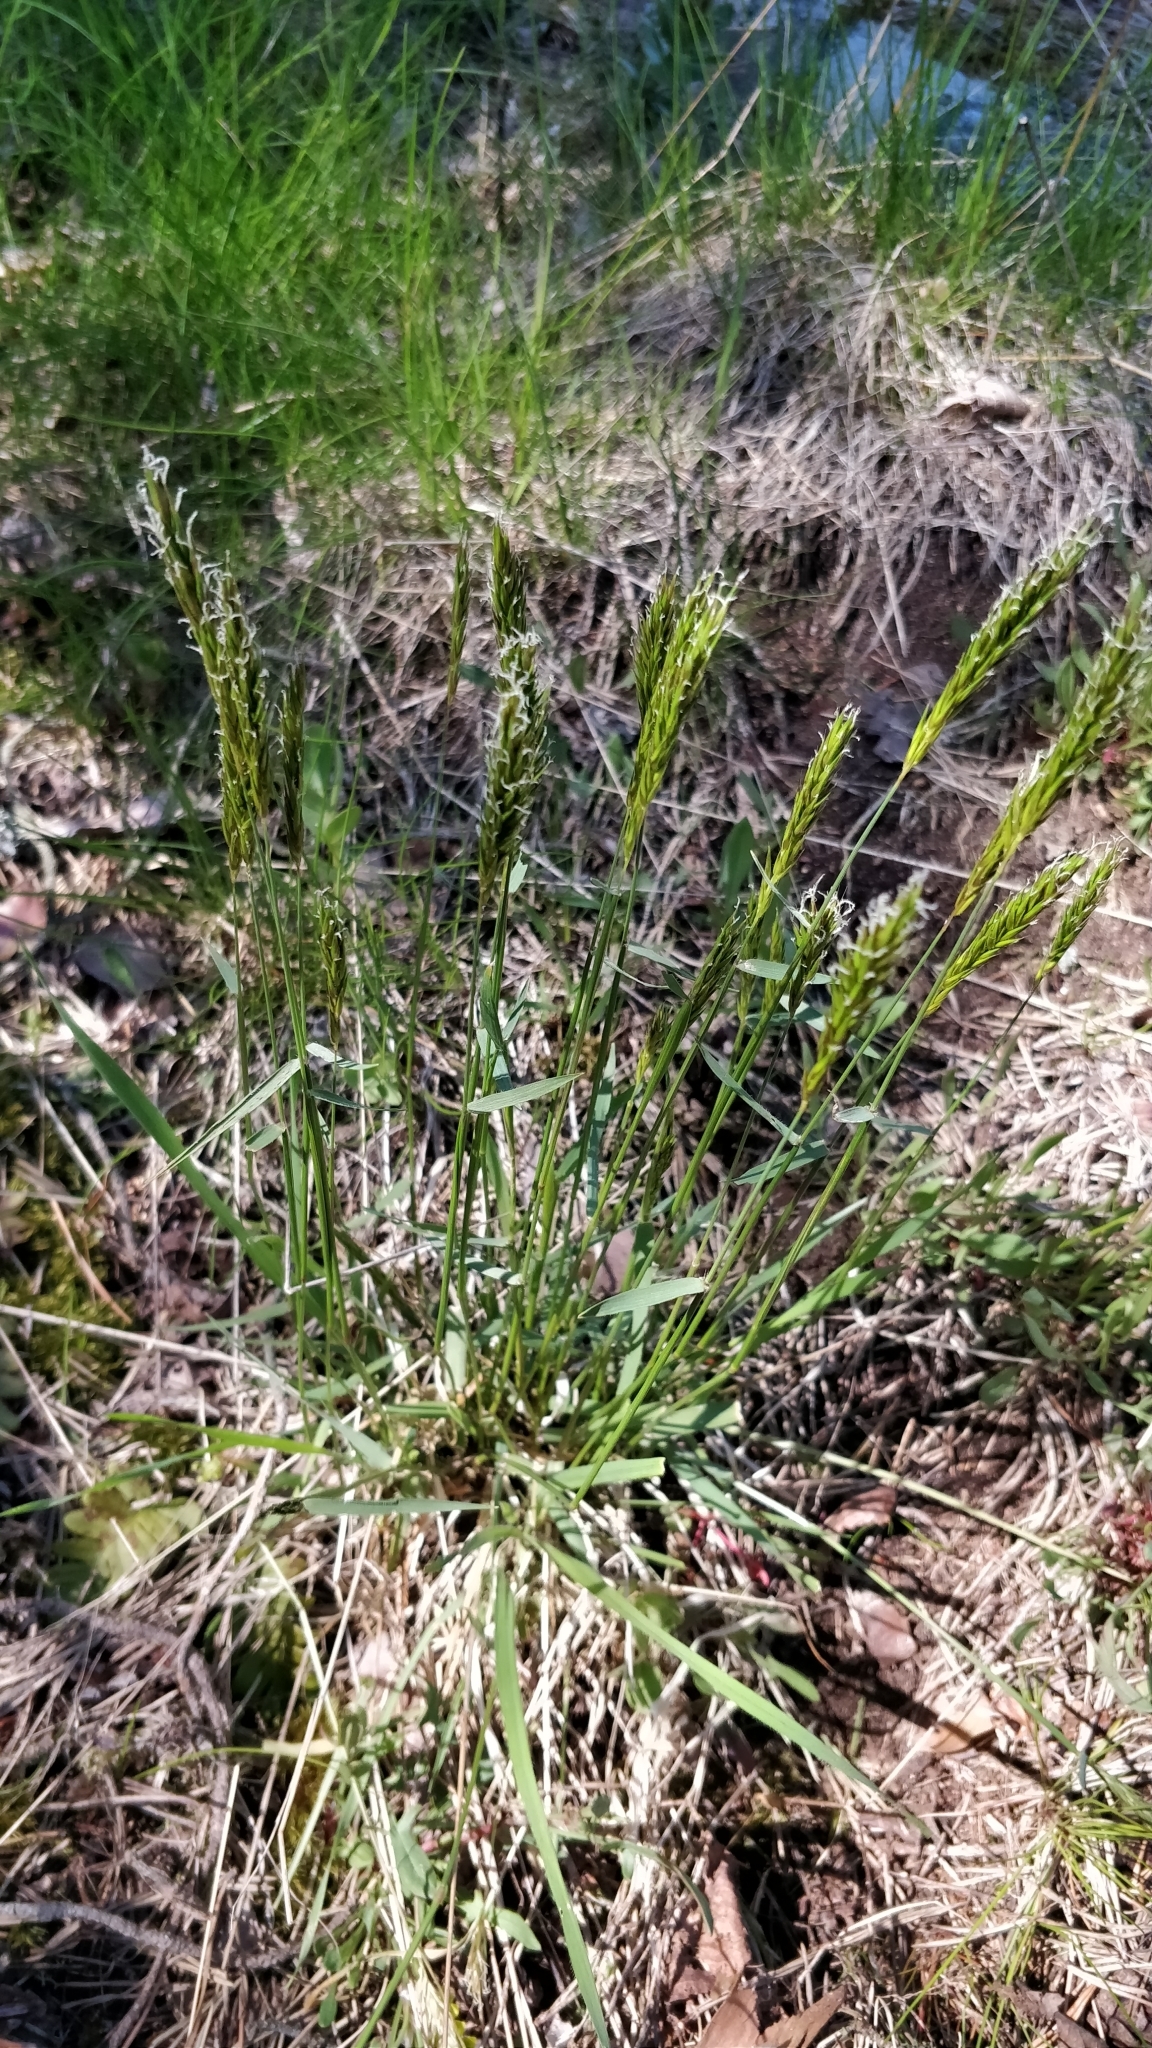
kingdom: Plantae
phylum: Tracheophyta
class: Liliopsida
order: Poales
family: Poaceae
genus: Anthoxanthum
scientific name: Anthoxanthum odoratum
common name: Sweet vernalgrass
